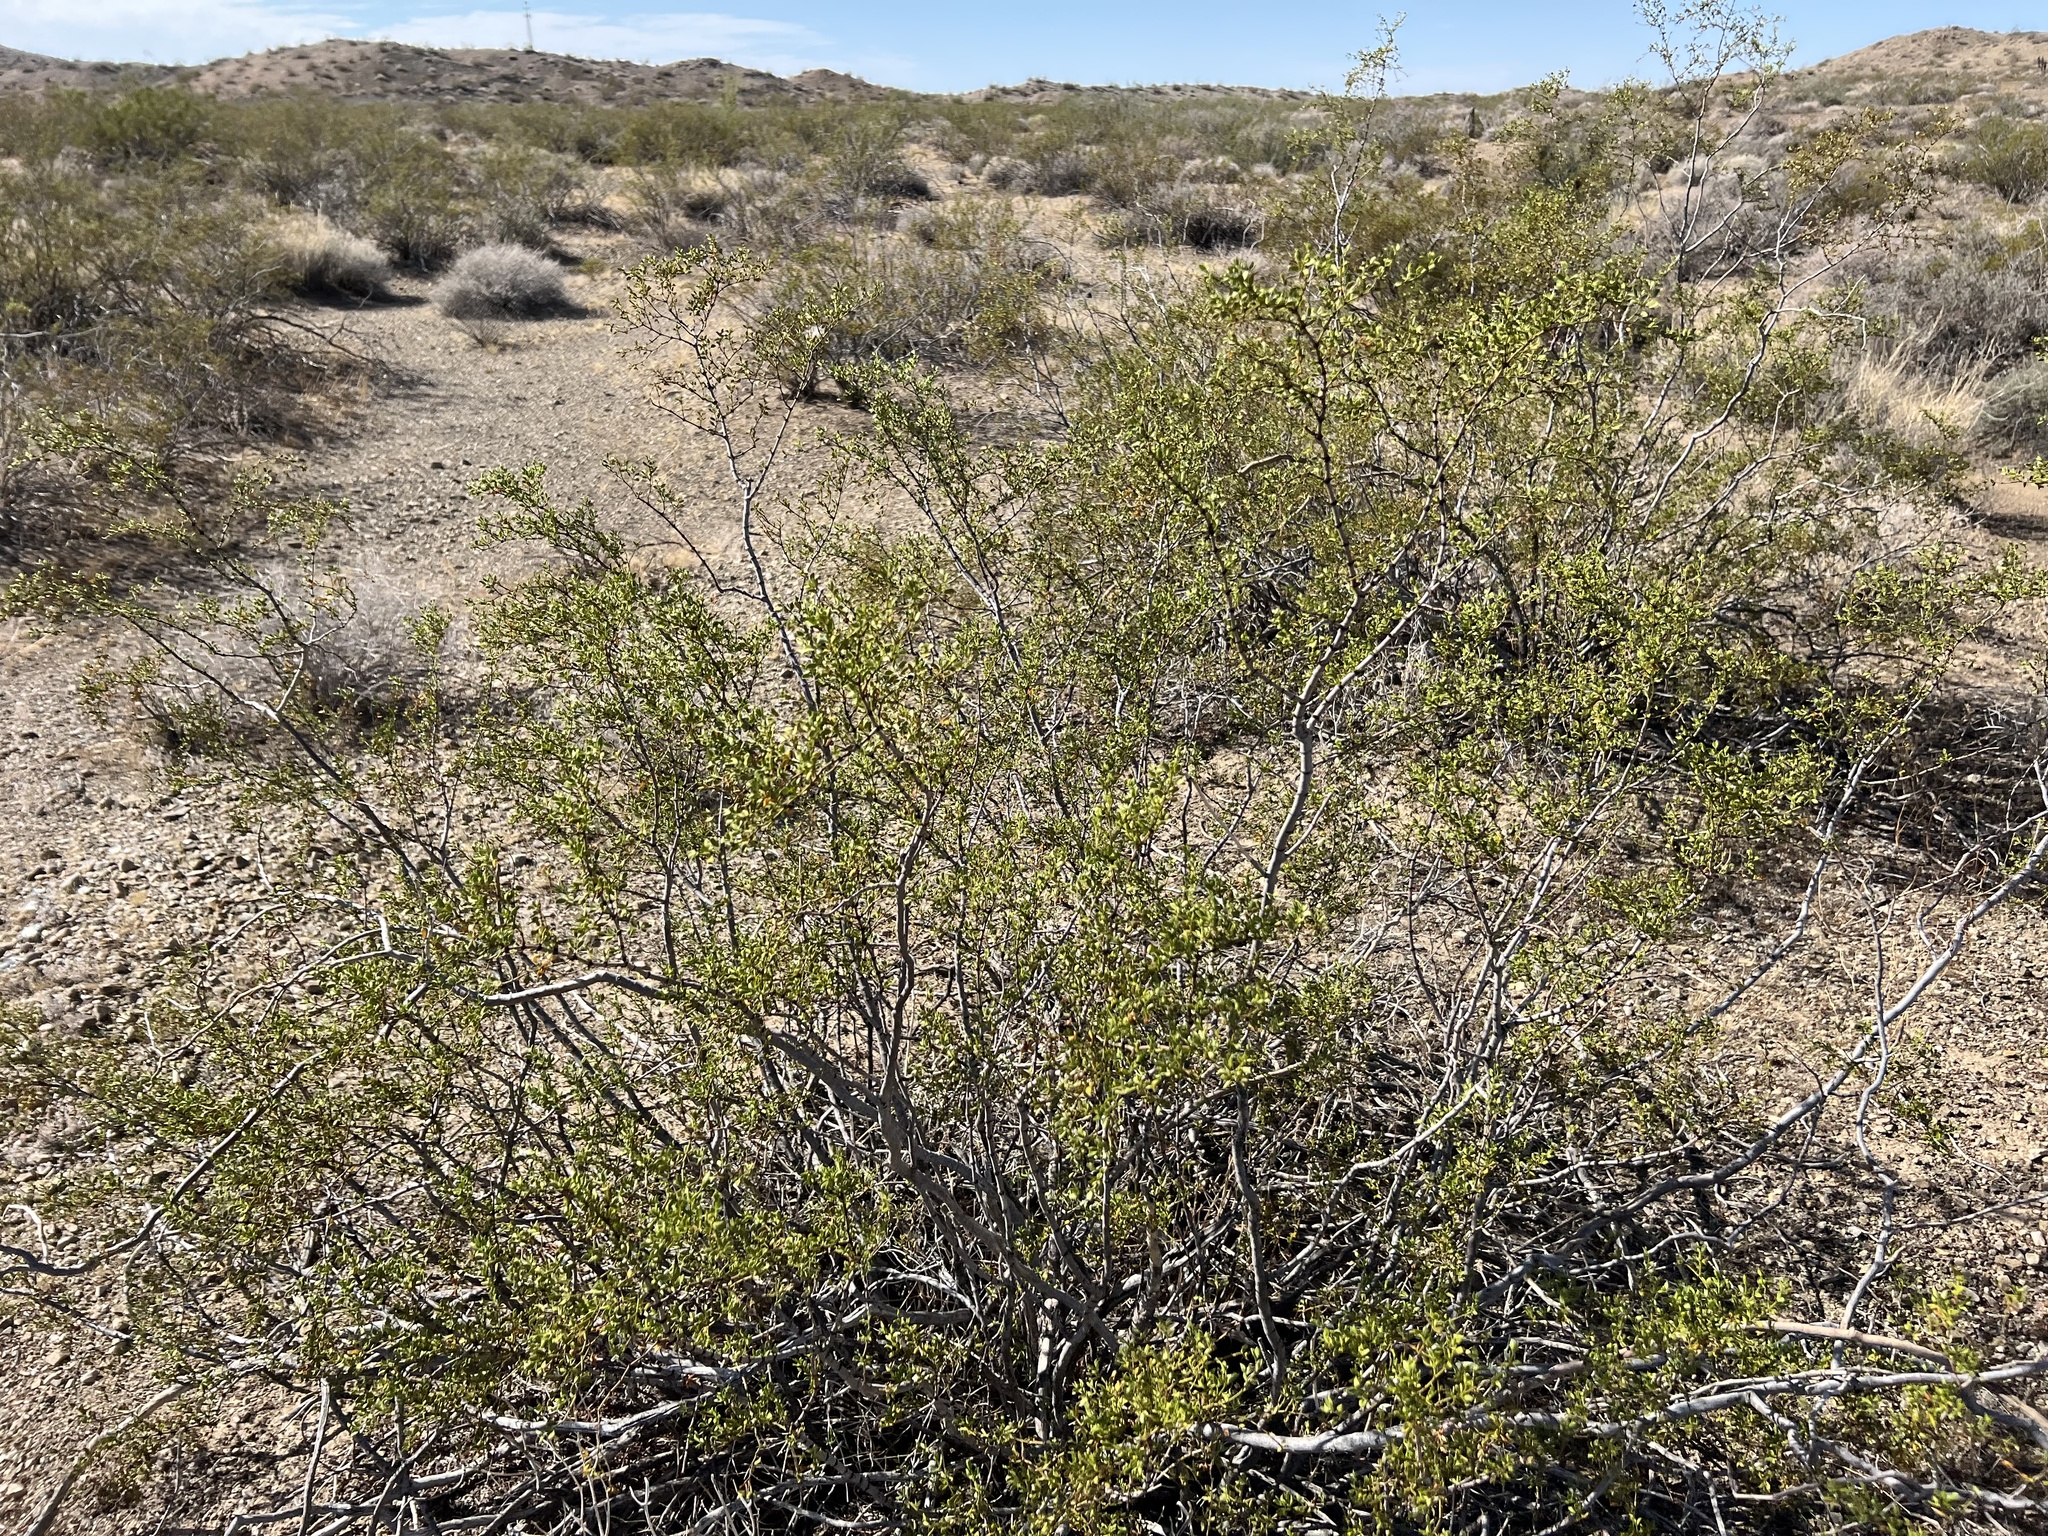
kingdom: Plantae
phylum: Tracheophyta
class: Magnoliopsida
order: Zygophyllales
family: Zygophyllaceae
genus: Larrea
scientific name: Larrea tridentata
